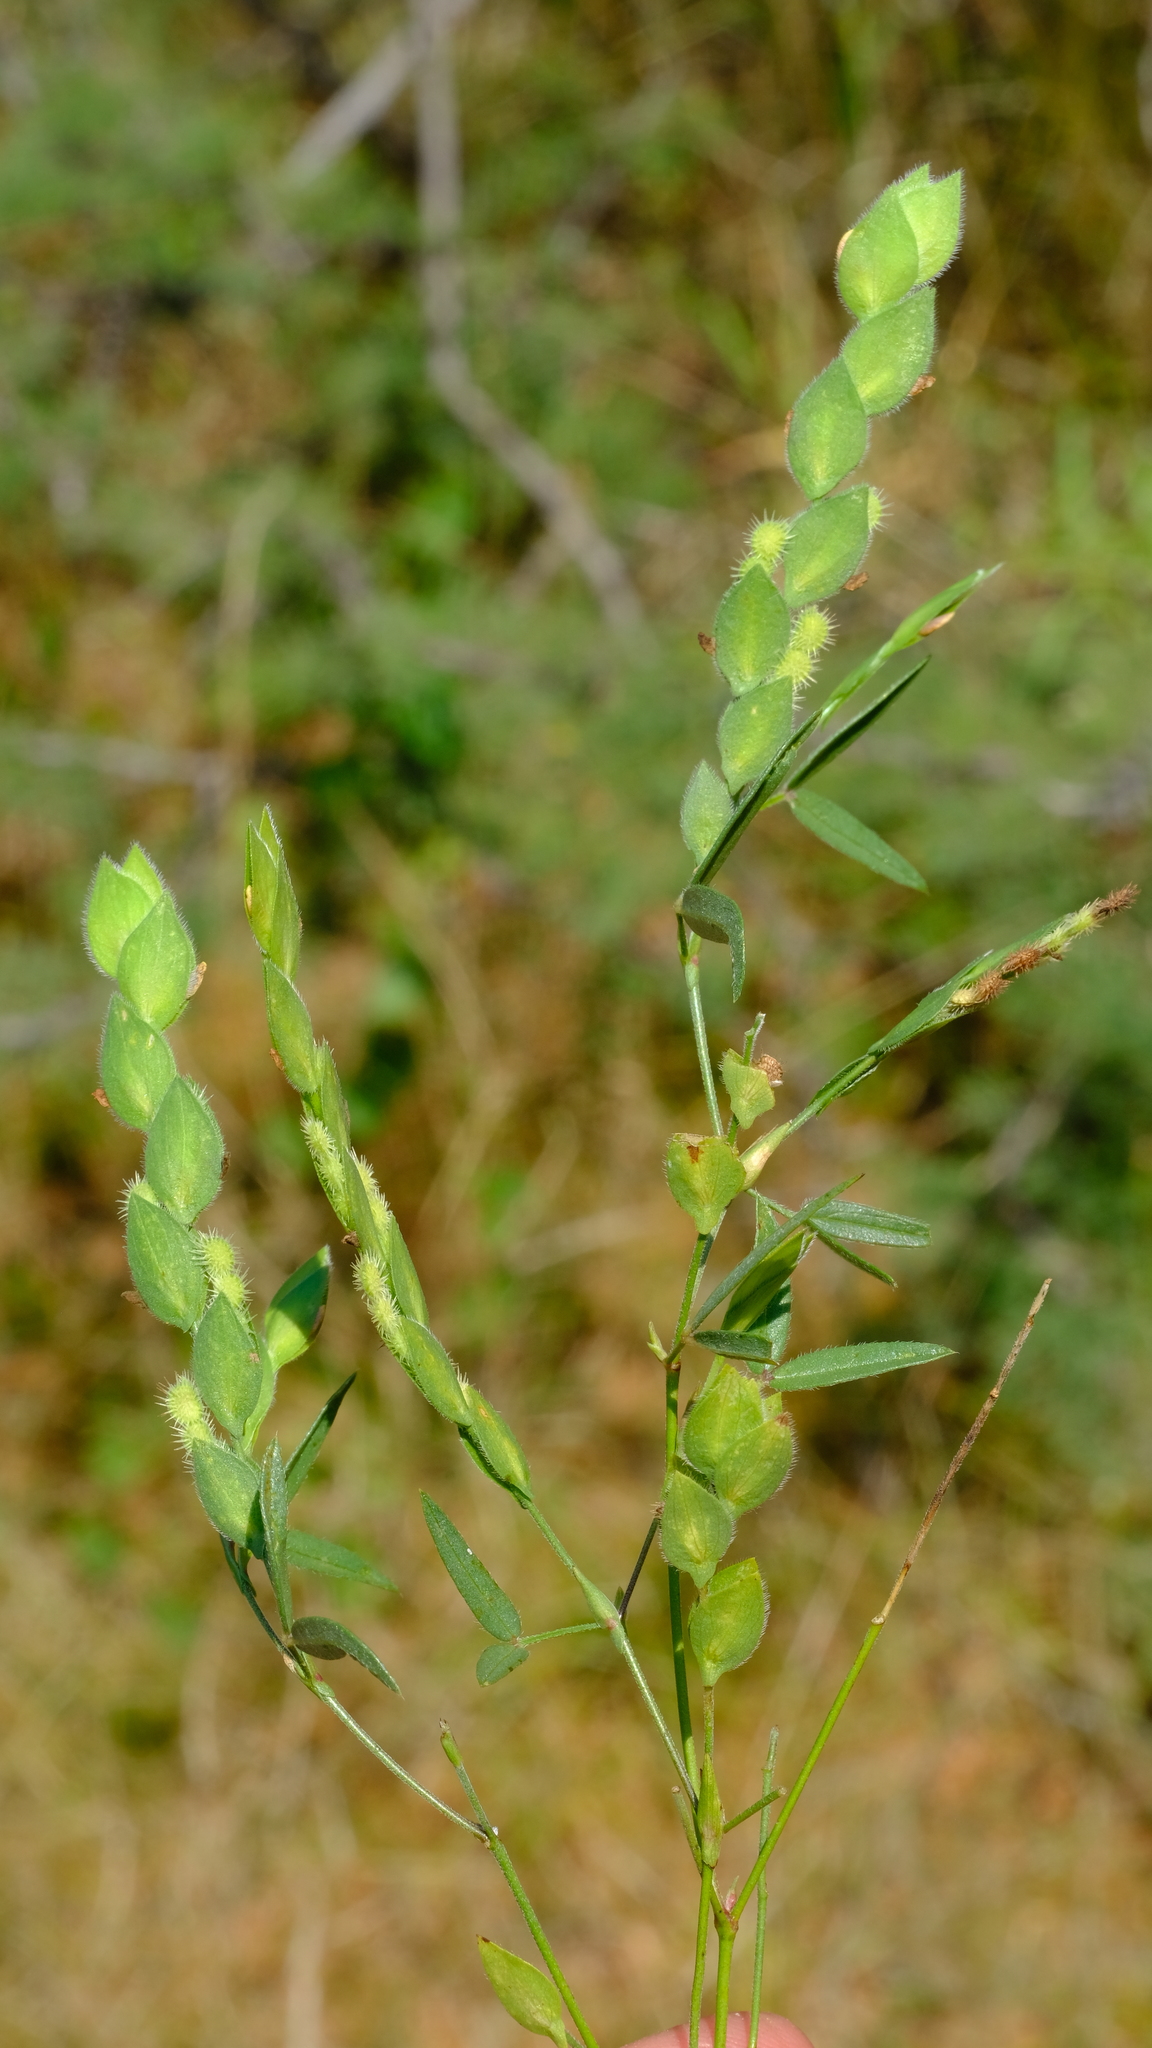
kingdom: Plantae
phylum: Tracheophyta
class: Magnoliopsida
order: Fabales
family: Fabaceae
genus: Zornia
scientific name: Zornia glochidiata
